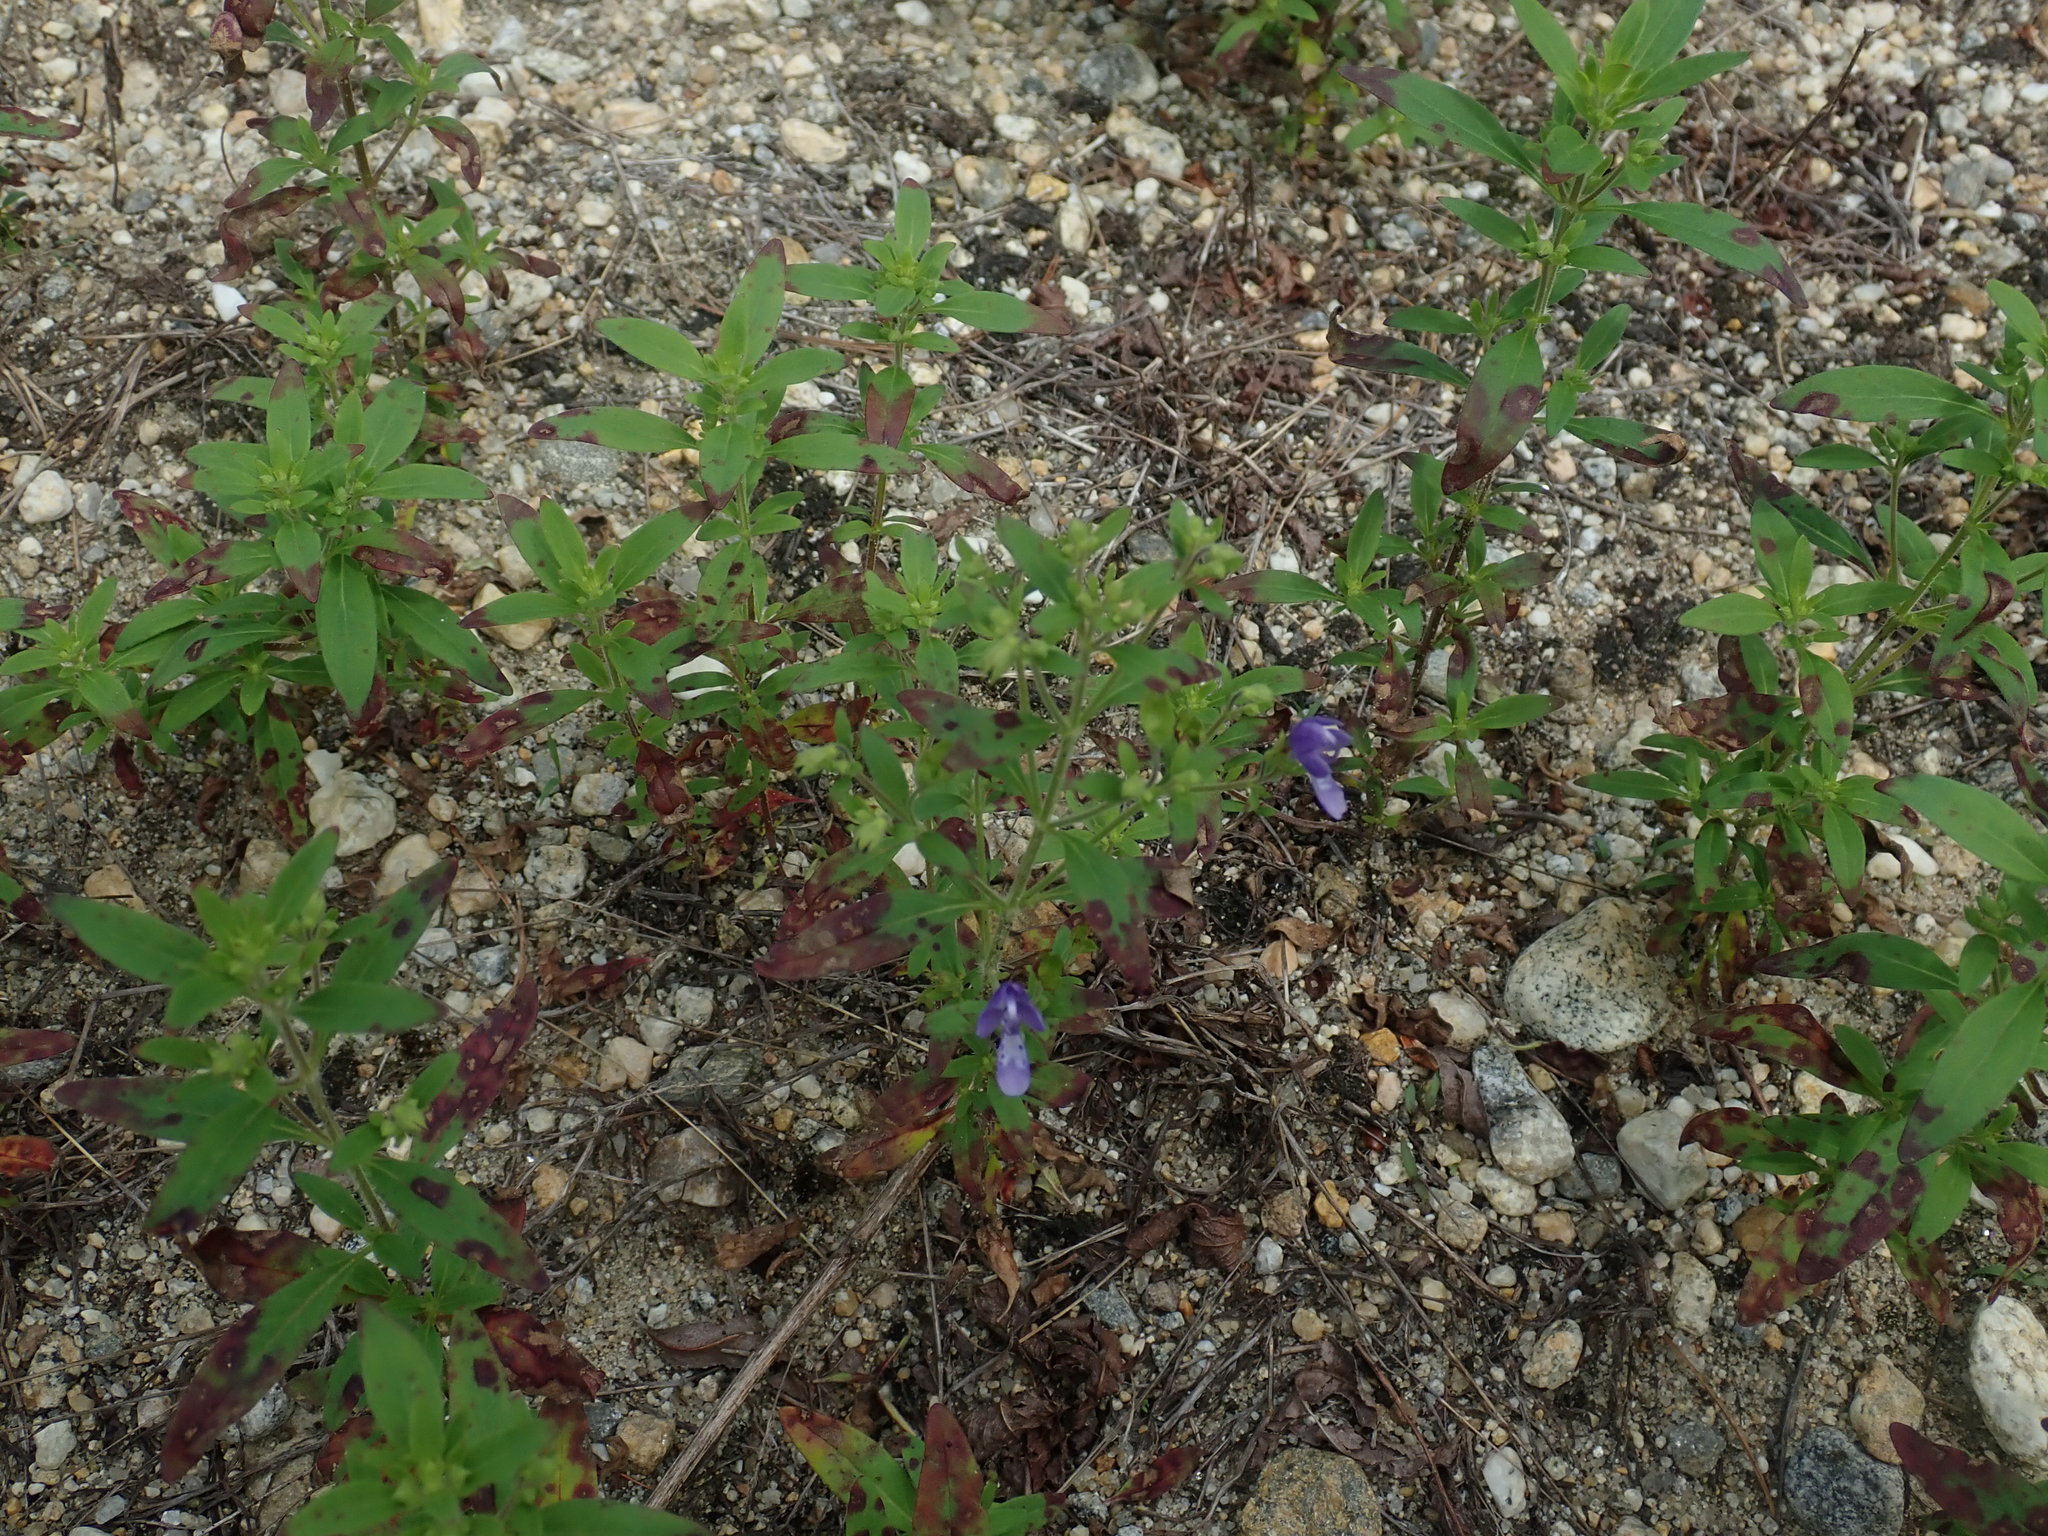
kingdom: Plantae
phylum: Tracheophyta
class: Magnoliopsida
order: Lamiales
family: Lamiaceae
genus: Trichostema
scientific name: Trichostema dichotomum
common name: Bastard pennyroyal
